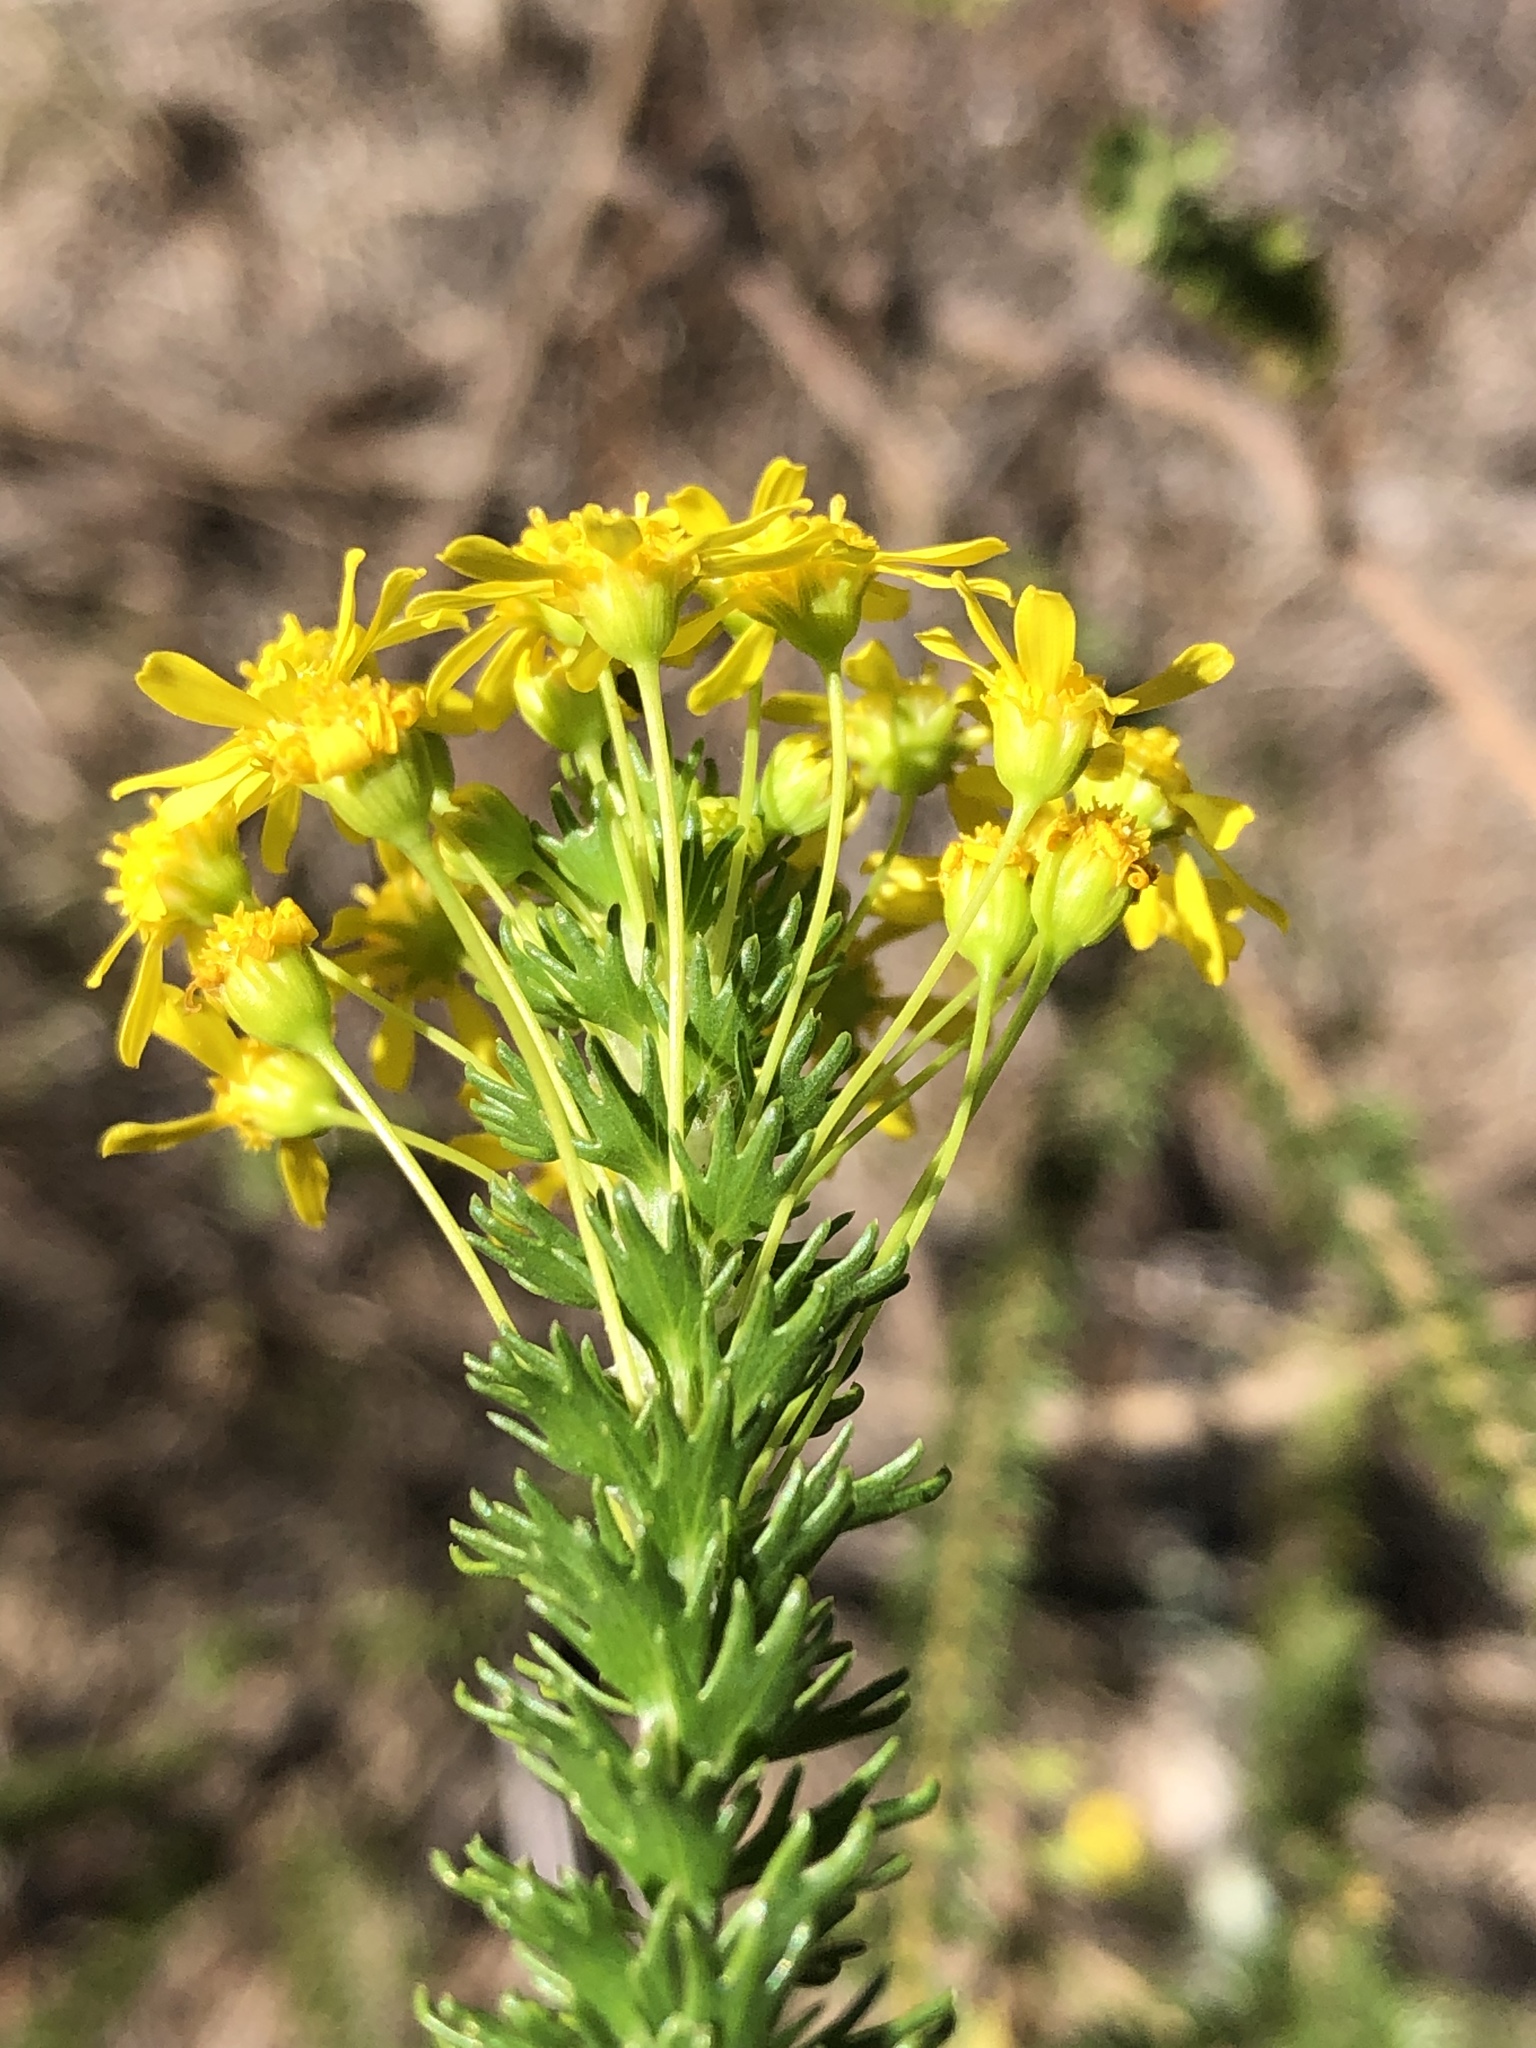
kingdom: Plantae
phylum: Tracheophyta
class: Magnoliopsida
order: Asterales
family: Asteraceae
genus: Euryops
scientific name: Euryops virgineus
